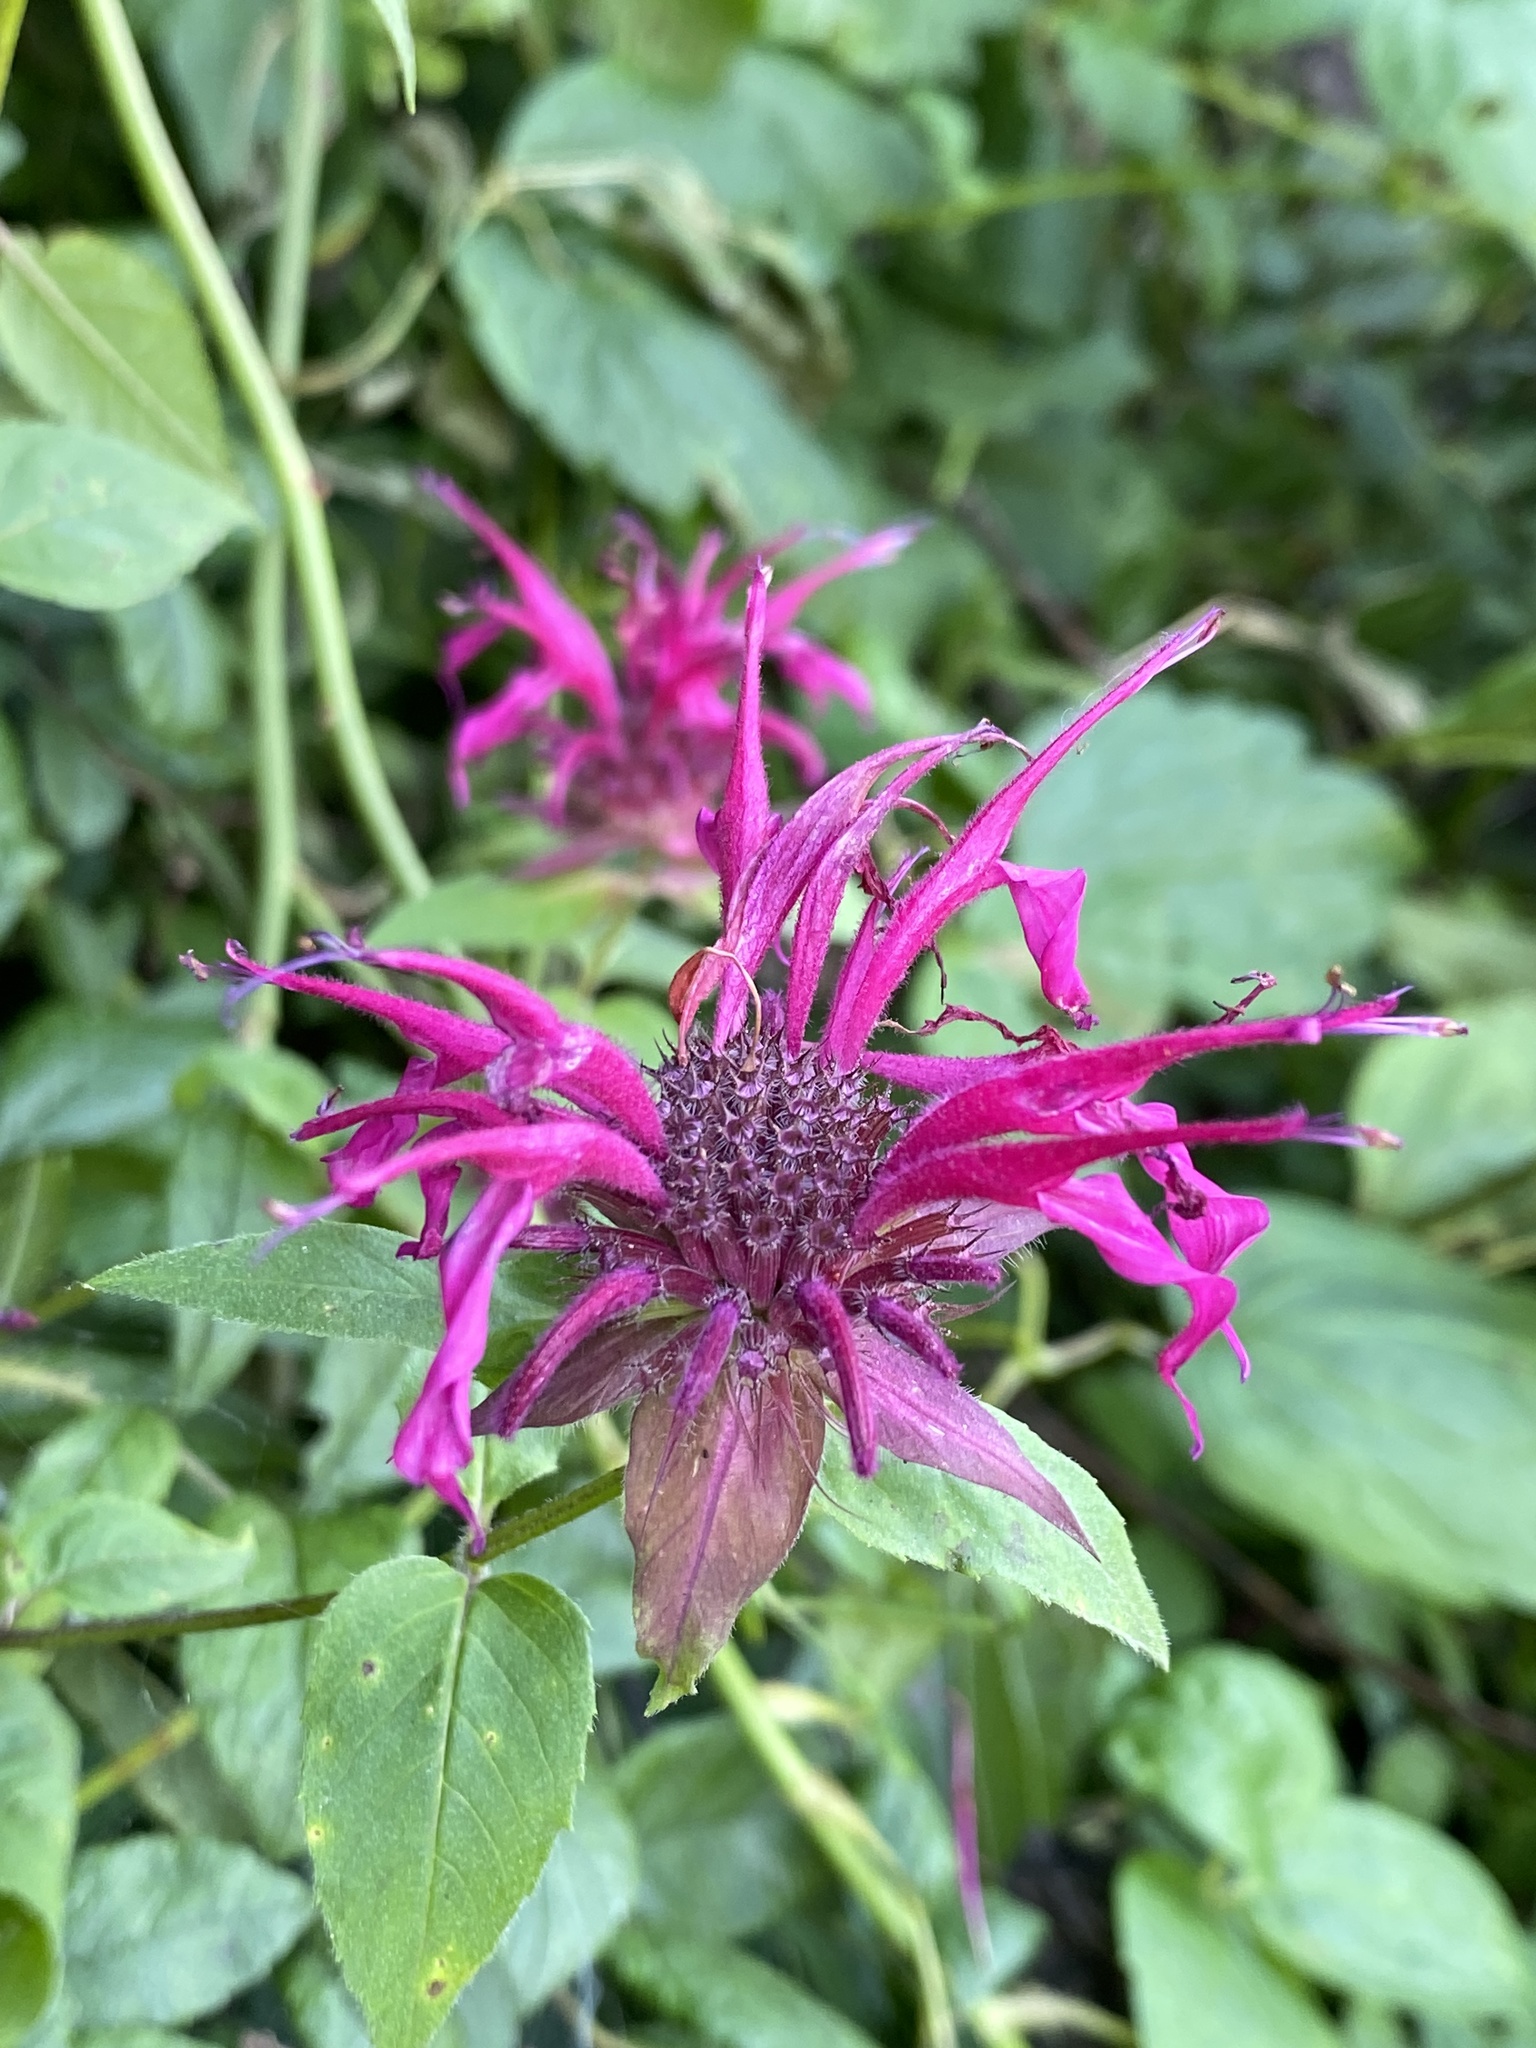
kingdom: Plantae
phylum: Tracheophyta
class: Magnoliopsida
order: Lamiales
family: Lamiaceae
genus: Monarda
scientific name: Monarda fistulosa
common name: Purple beebalm
